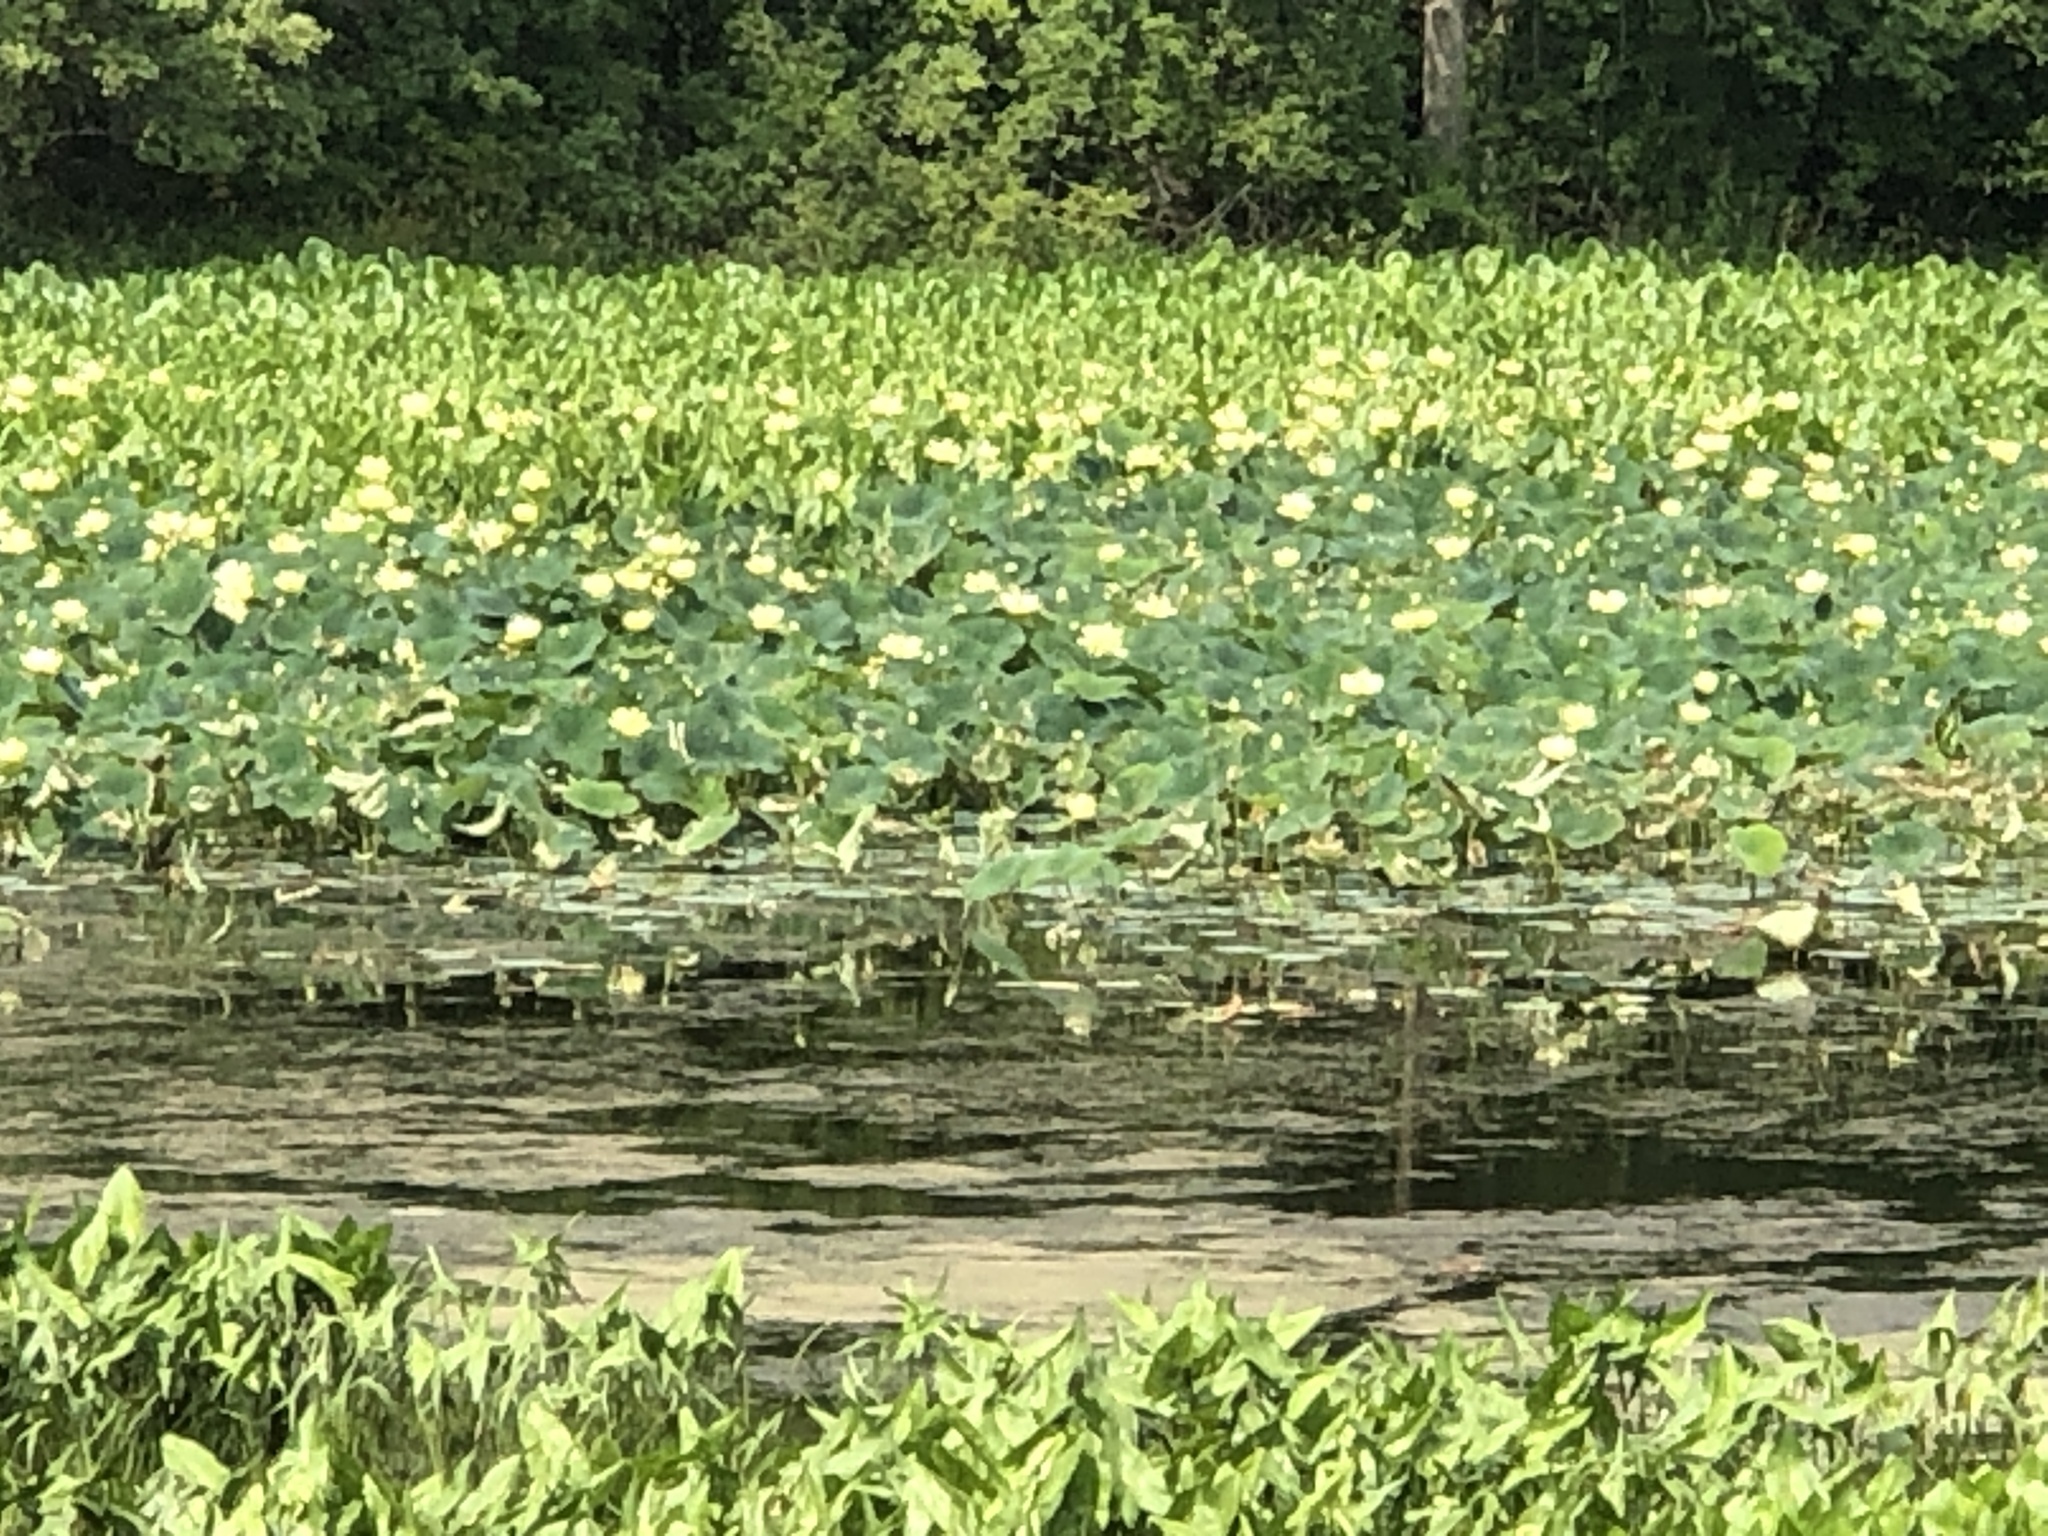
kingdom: Plantae
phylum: Tracheophyta
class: Magnoliopsida
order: Proteales
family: Nelumbonaceae
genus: Nelumbo
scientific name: Nelumbo lutea
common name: American lotus
